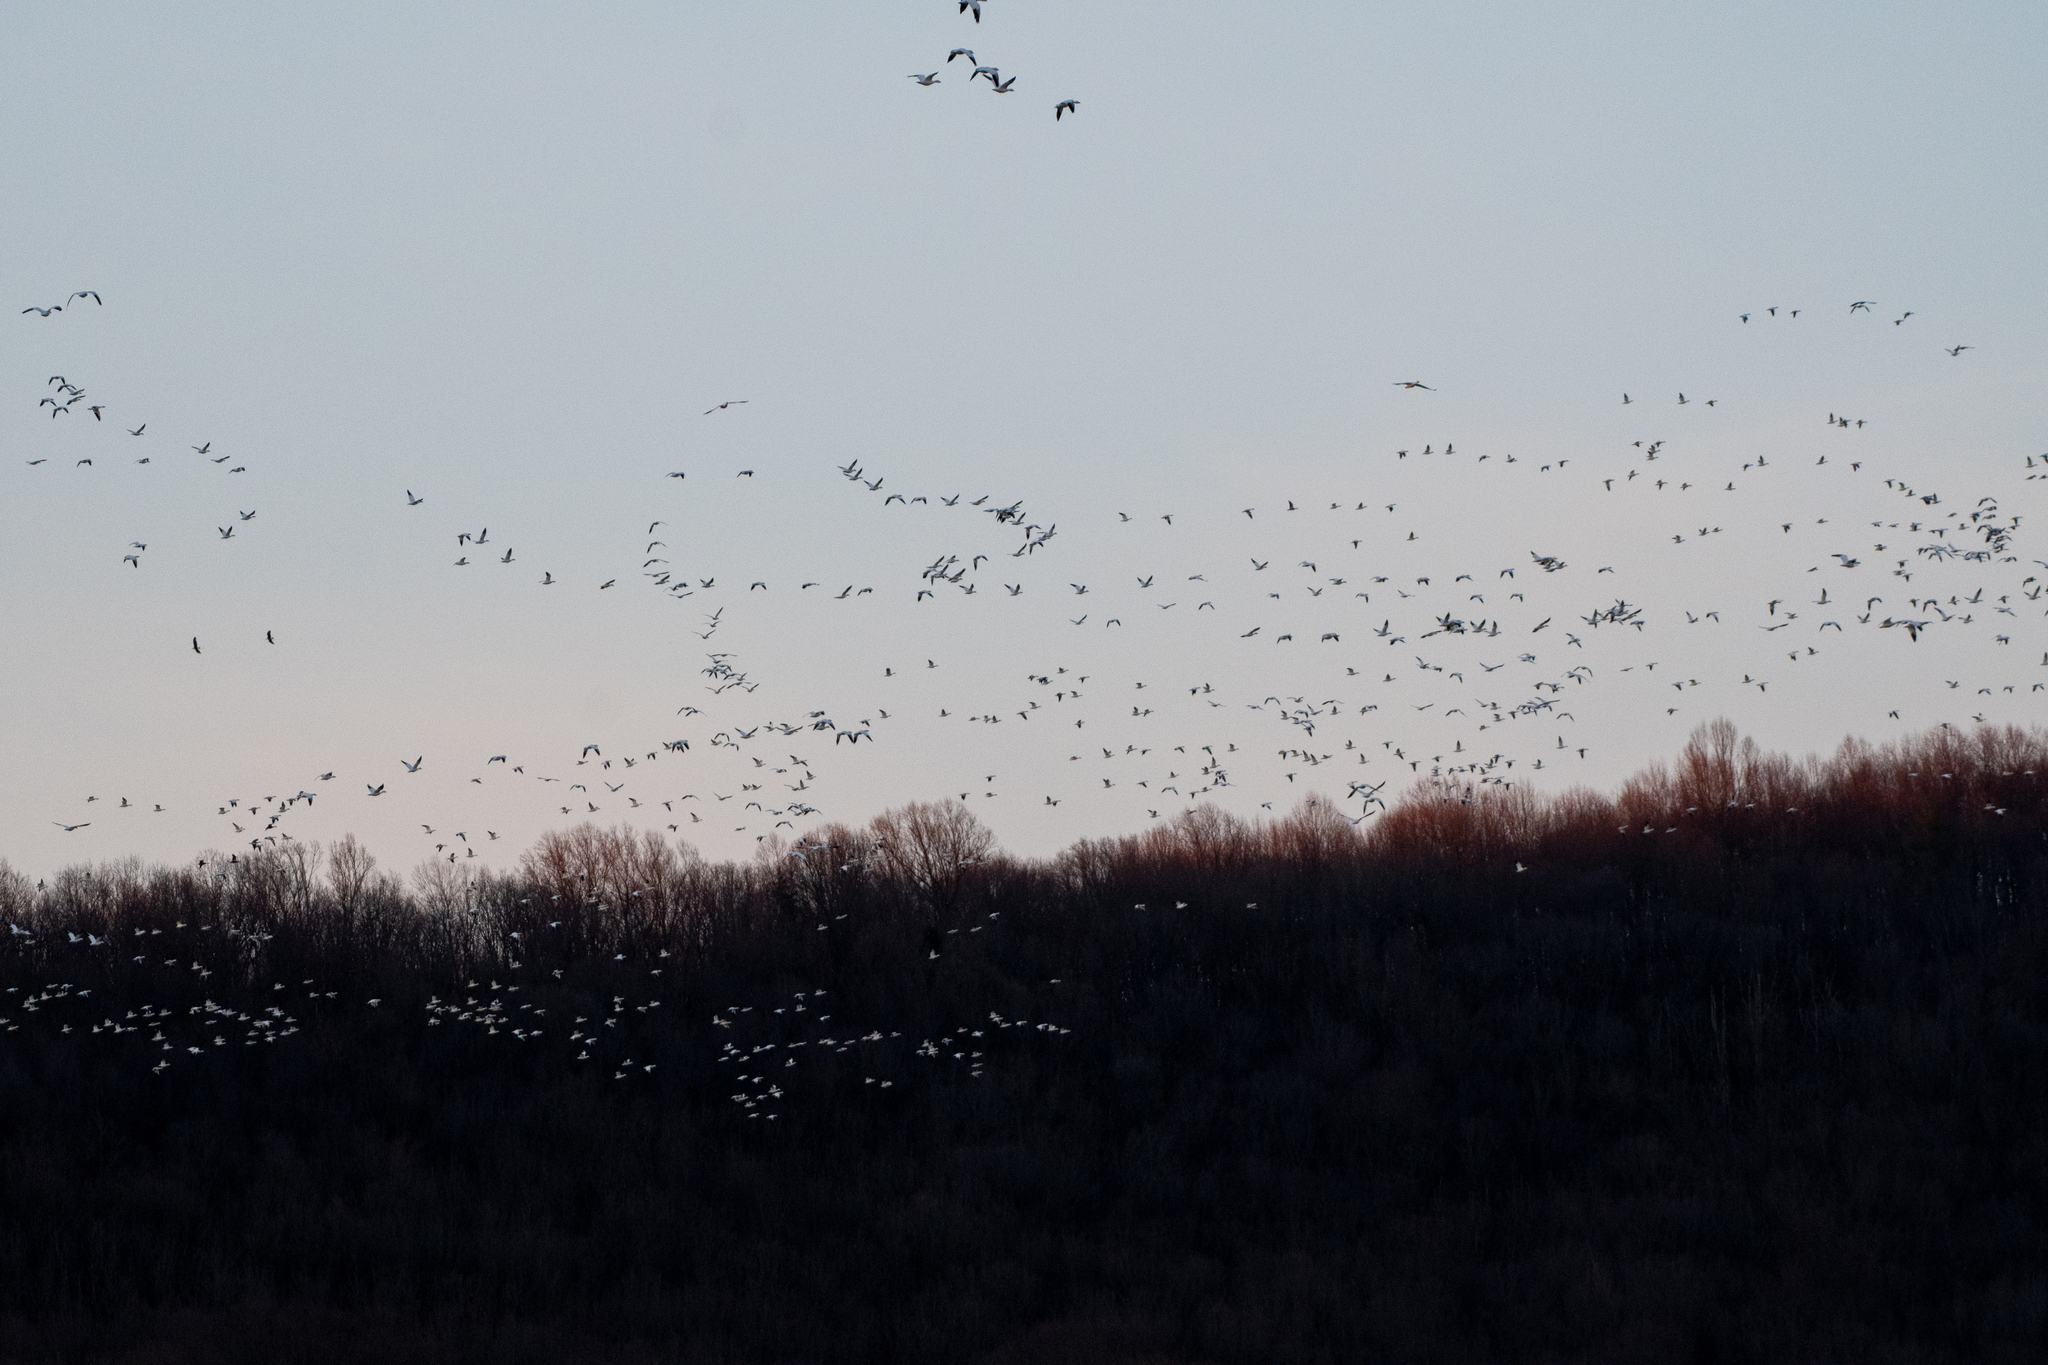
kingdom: Animalia
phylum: Chordata
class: Aves
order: Anseriformes
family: Anatidae
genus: Anser
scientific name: Anser caerulescens
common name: Snow goose
